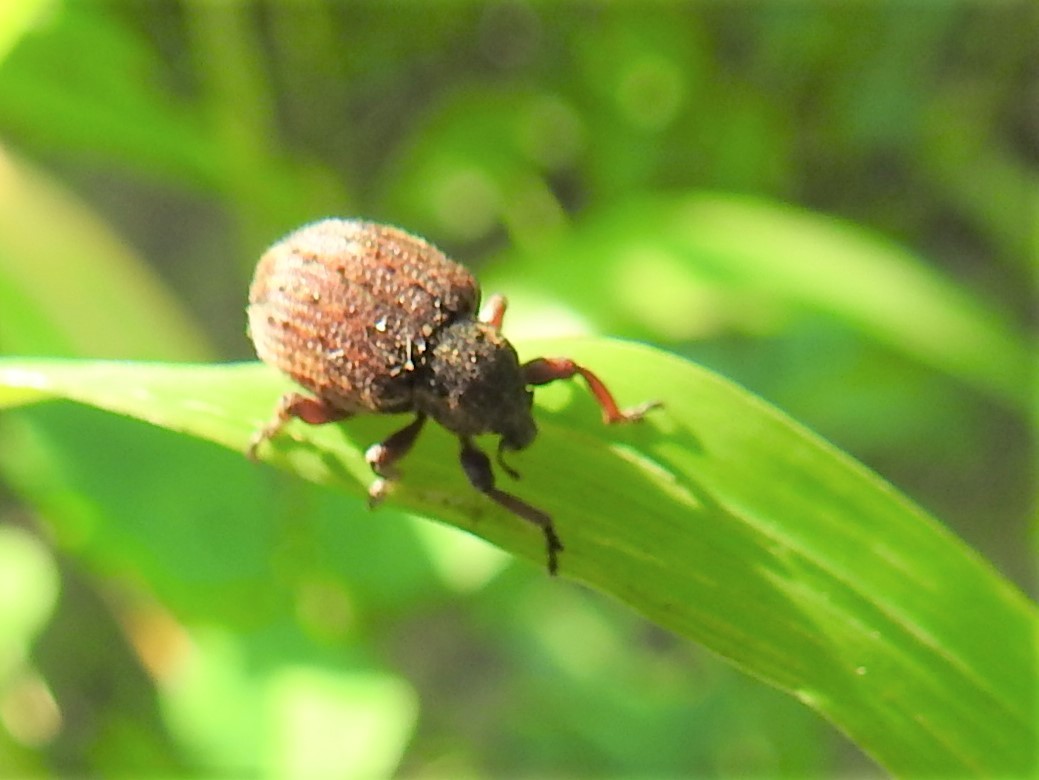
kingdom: Animalia
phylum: Arthropoda
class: Insecta
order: Coleoptera
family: Curculionidae
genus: Brachypera
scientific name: Brachypera zoilus
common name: Clover leaf weevil
